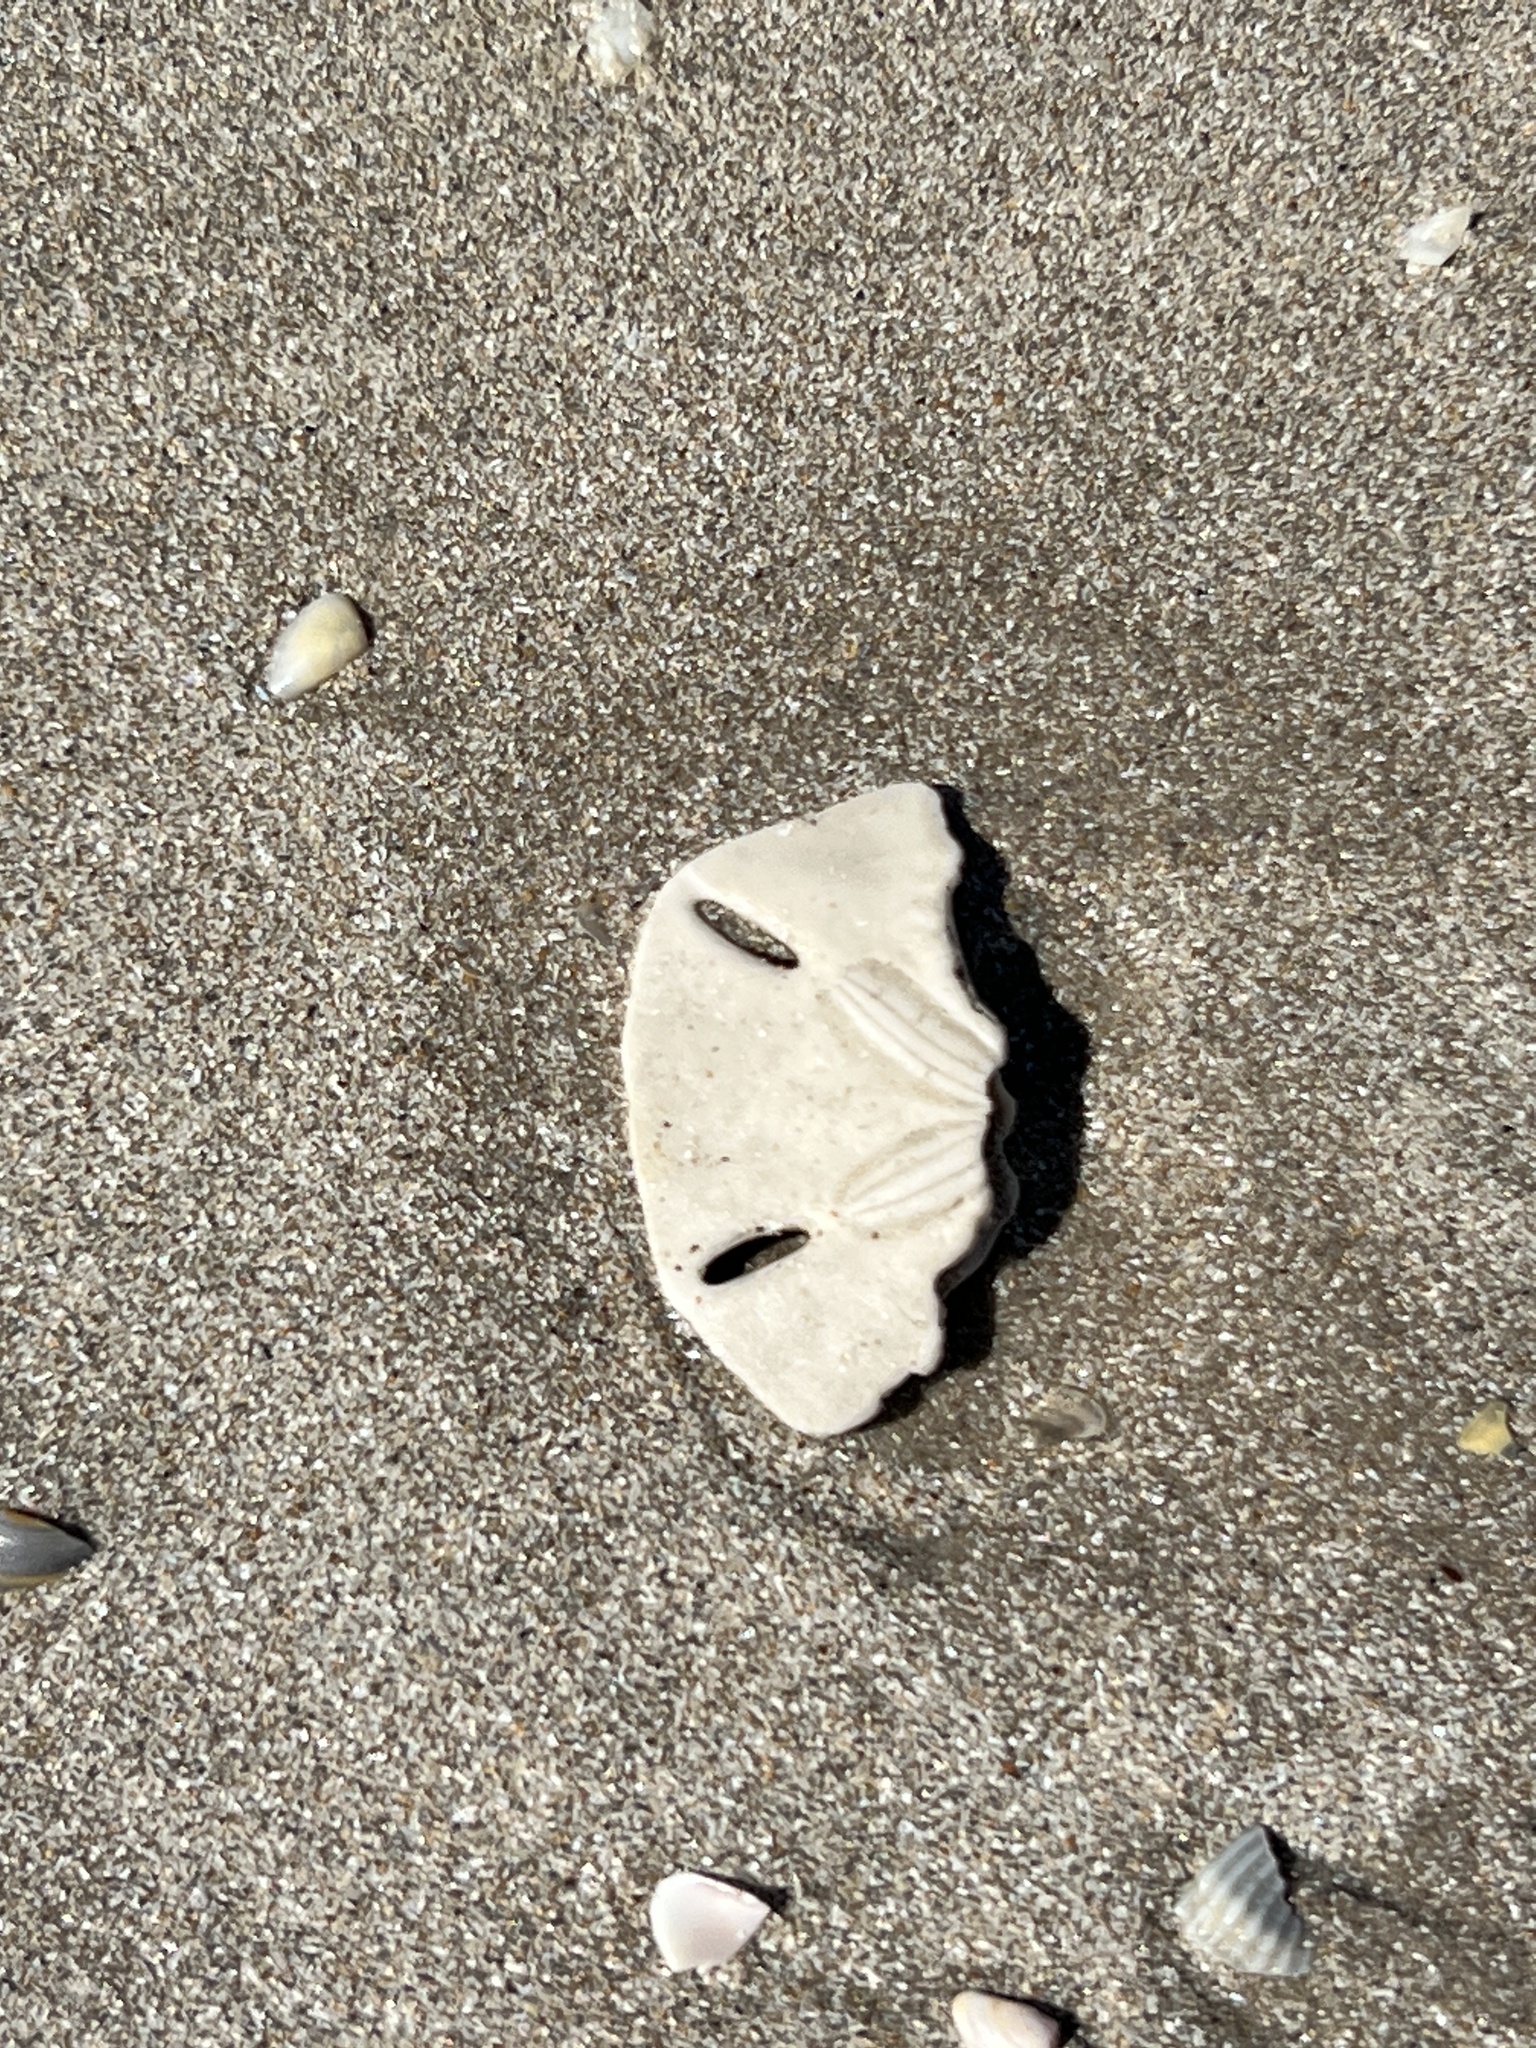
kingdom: Animalia
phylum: Echinodermata
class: Echinoidea
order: Echinolampadacea
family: Mellitidae
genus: Mellita
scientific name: Mellita quinquiesperforata
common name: Sand dollar
